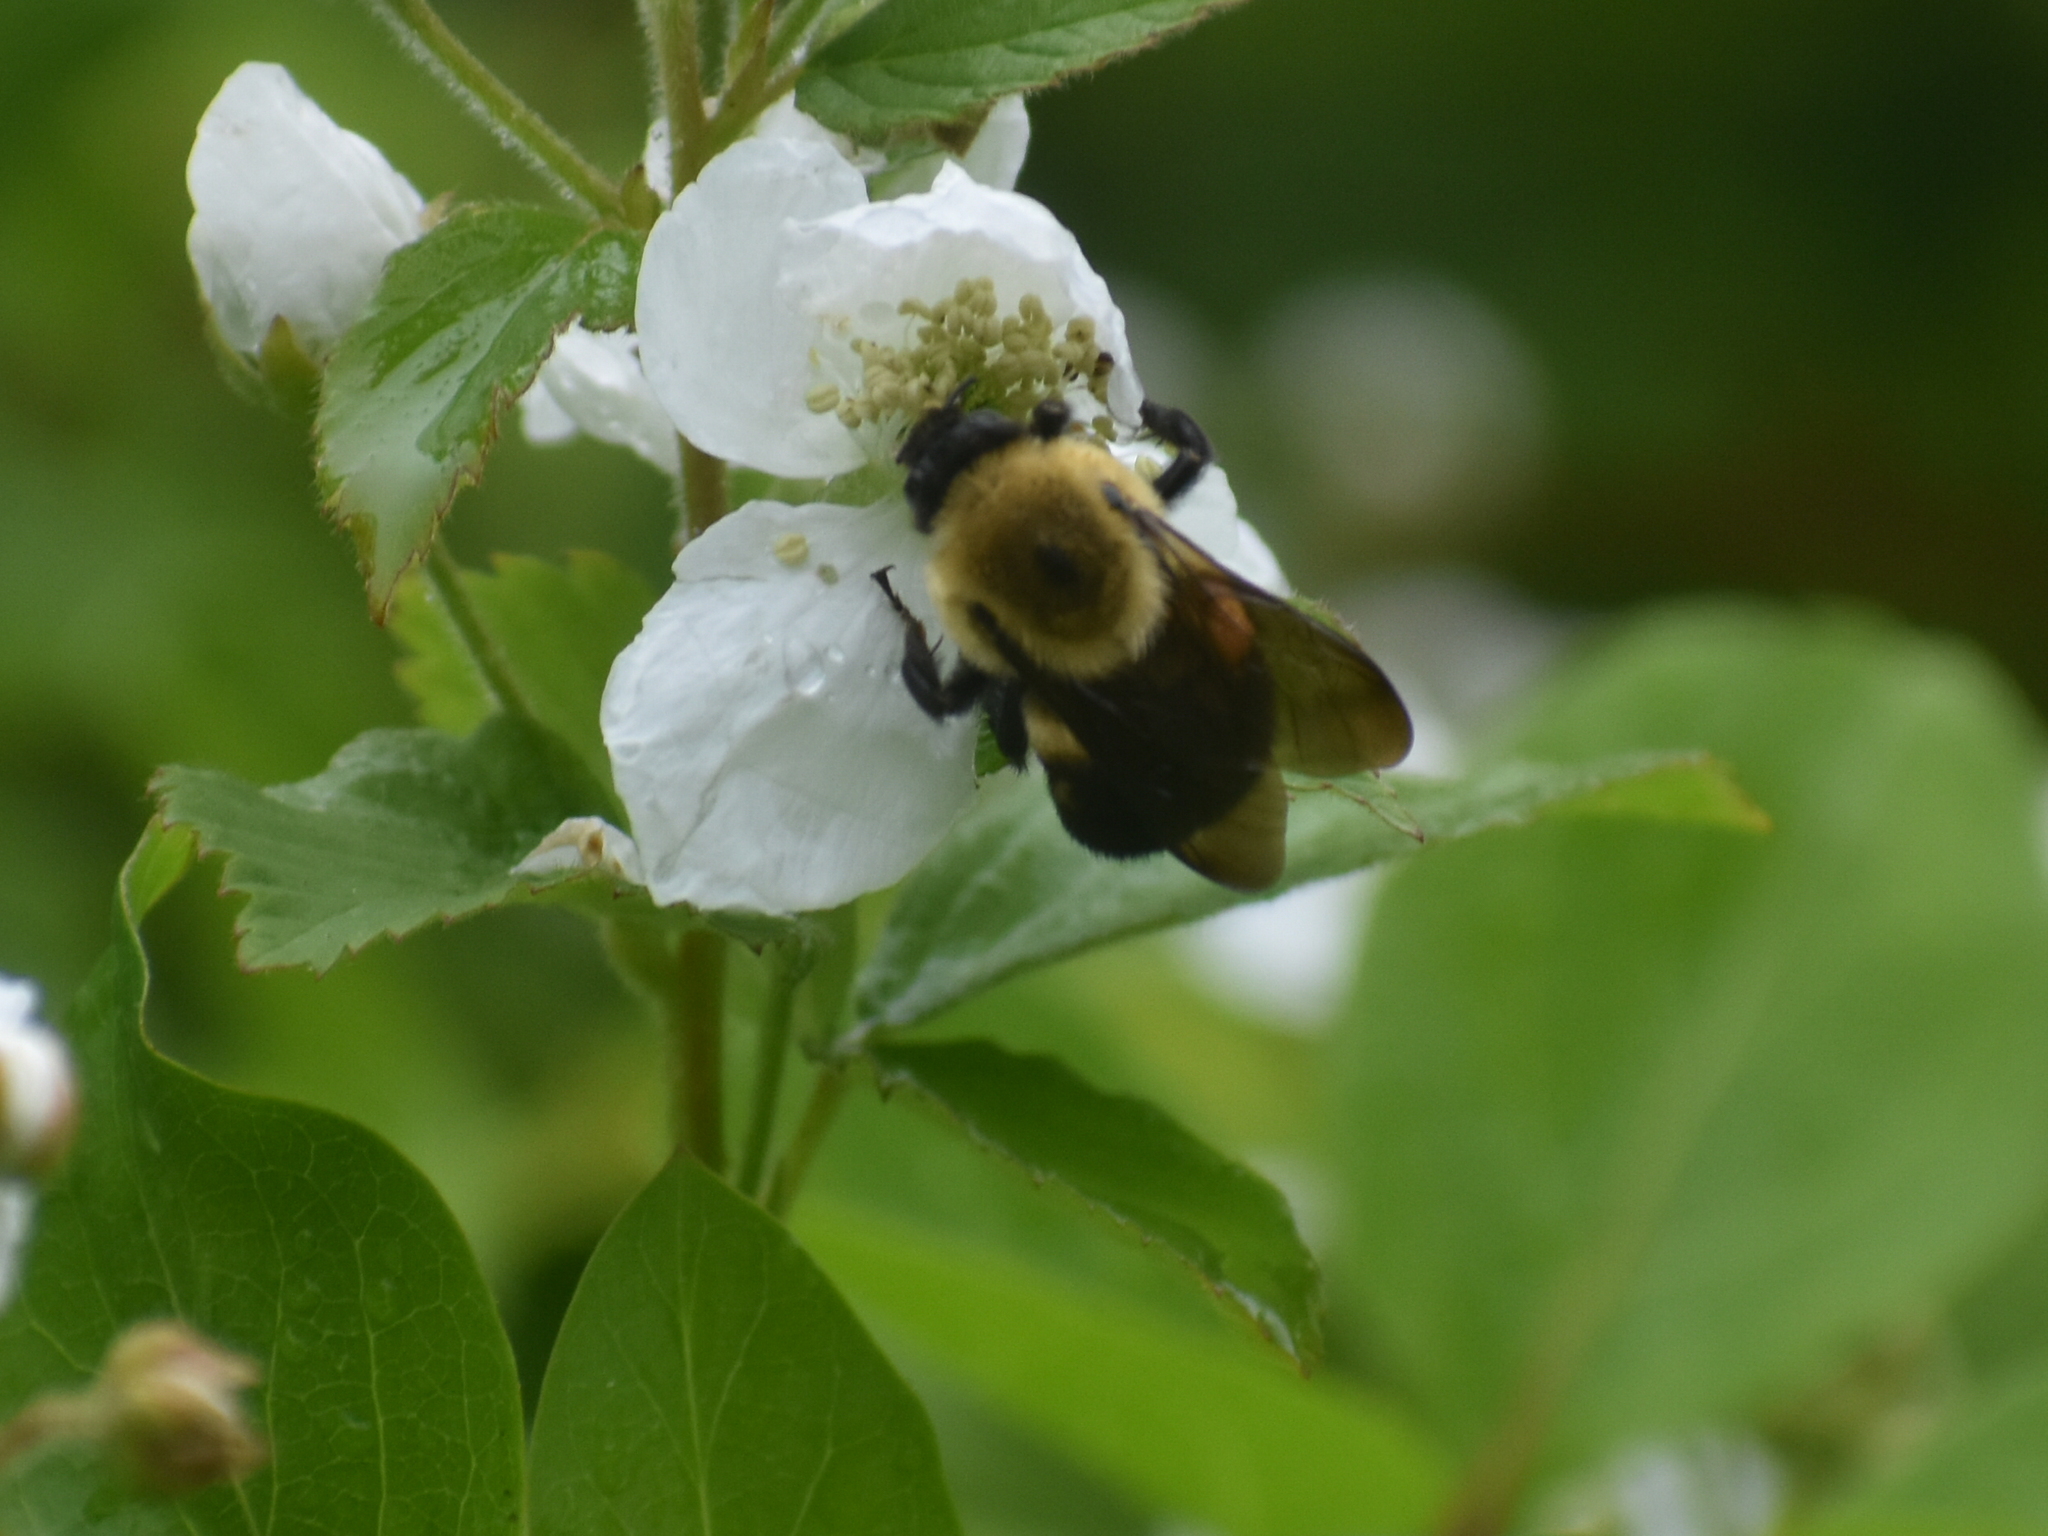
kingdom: Animalia
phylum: Arthropoda
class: Insecta
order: Hymenoptera
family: Apidae
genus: Bombus
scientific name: Bombus griseocollis
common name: Brown-belted bumble bee
